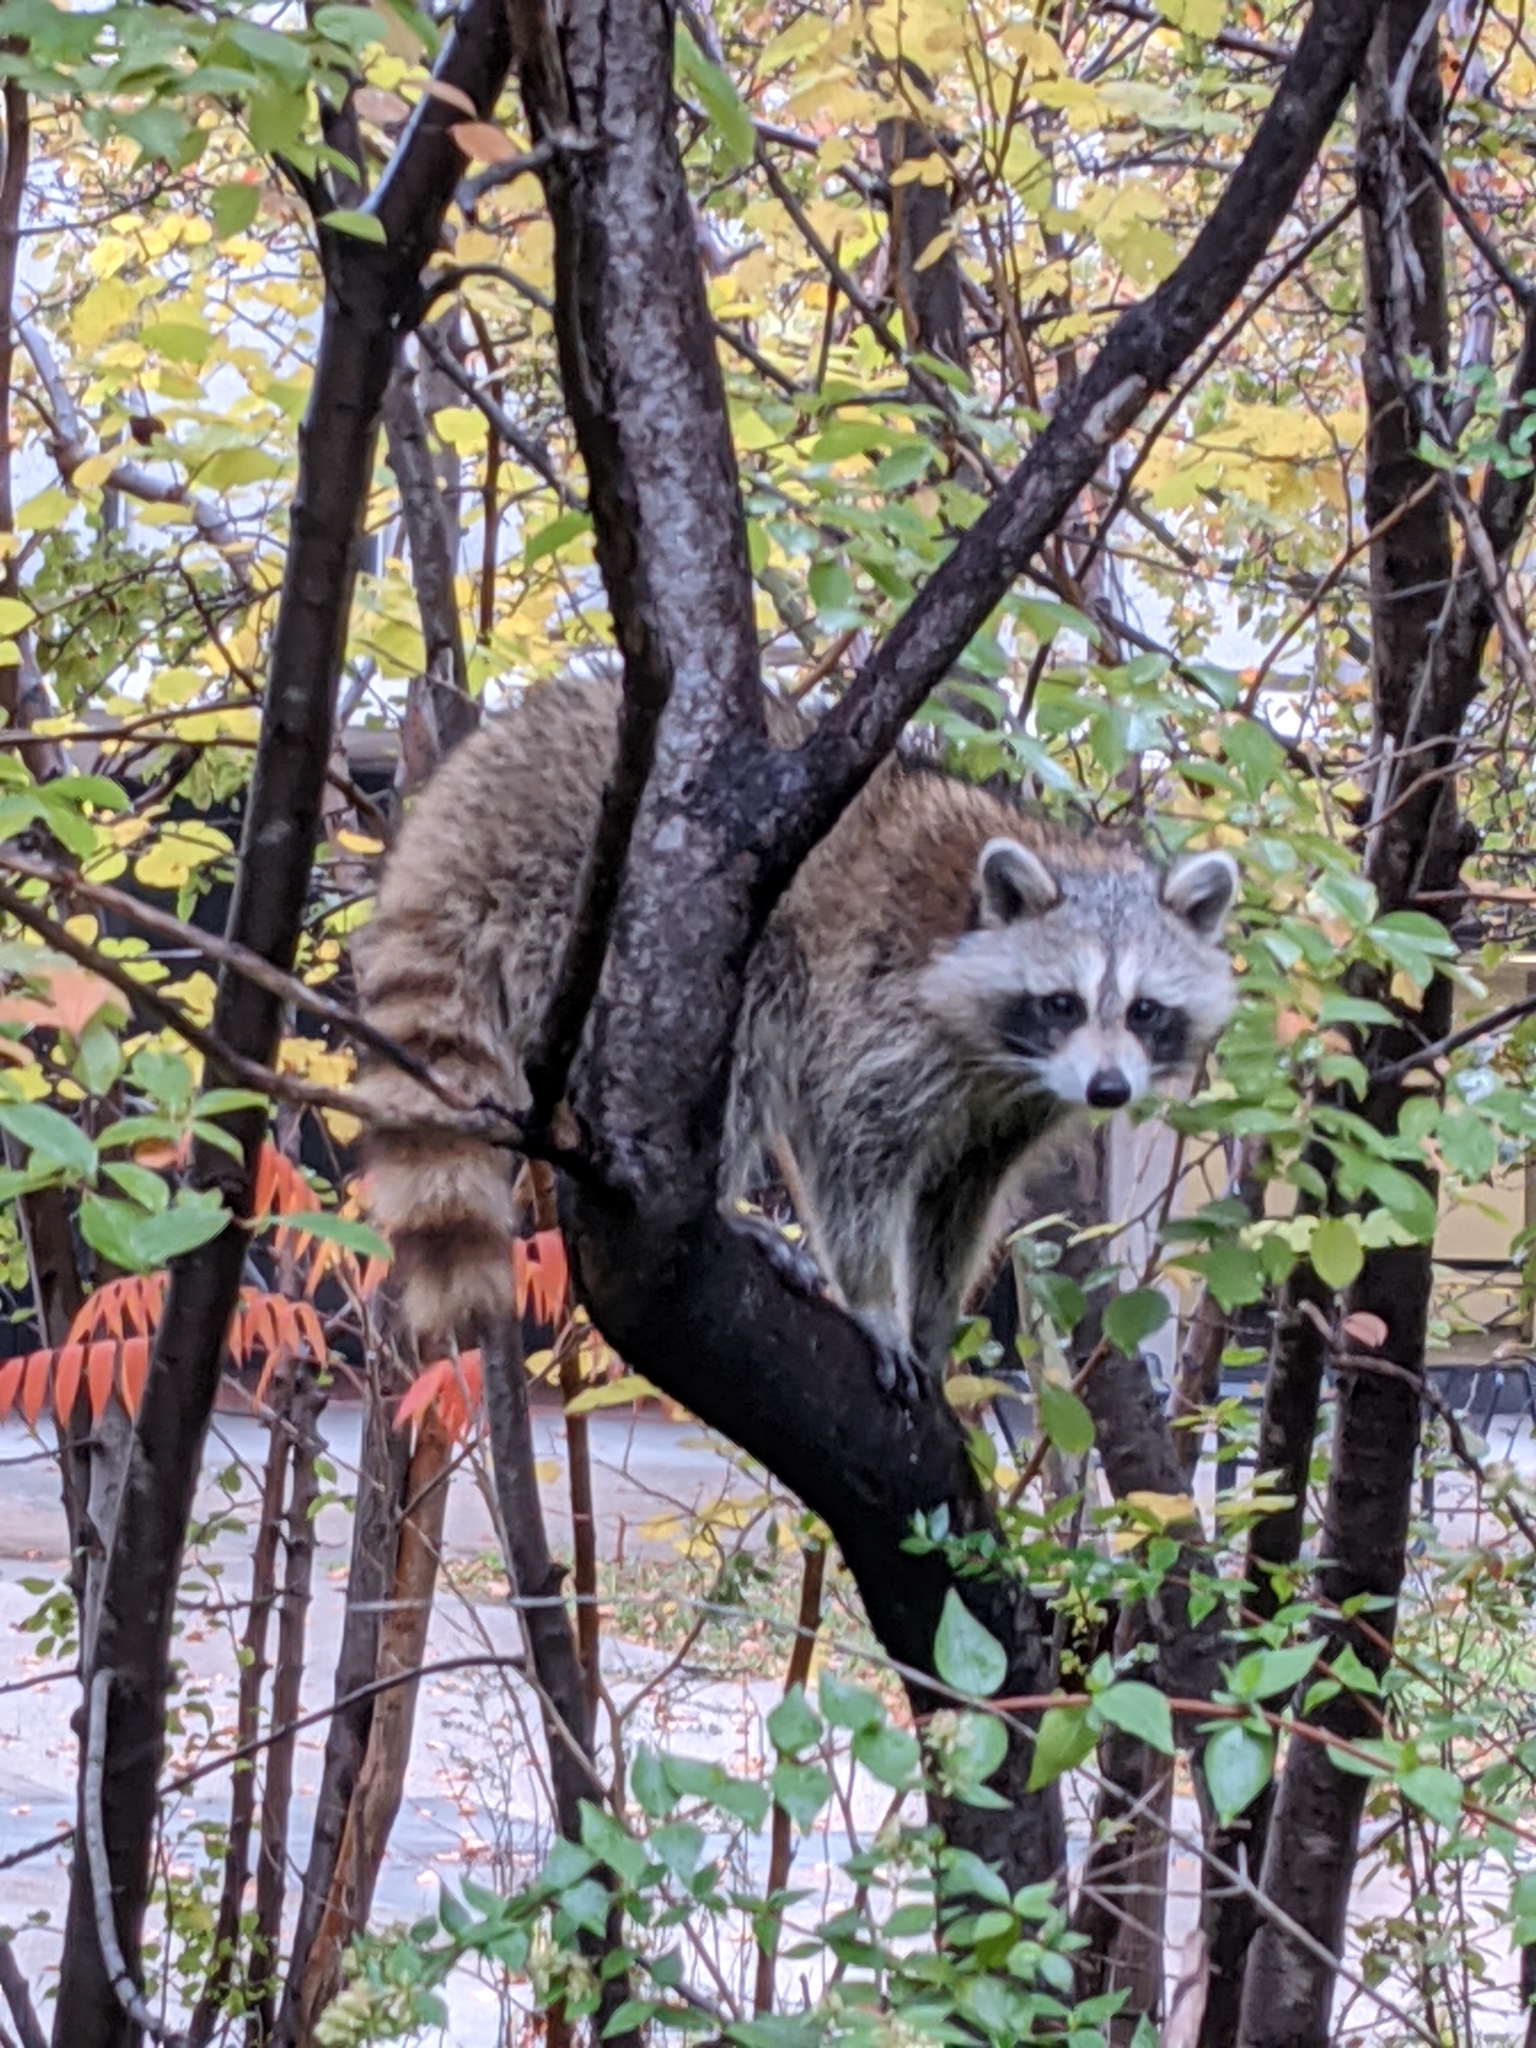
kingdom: Animalia
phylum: Chordata
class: Mammalia
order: Carnivora
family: Procyonidae
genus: Procyon
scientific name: Procyon lotor
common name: Raccoon
